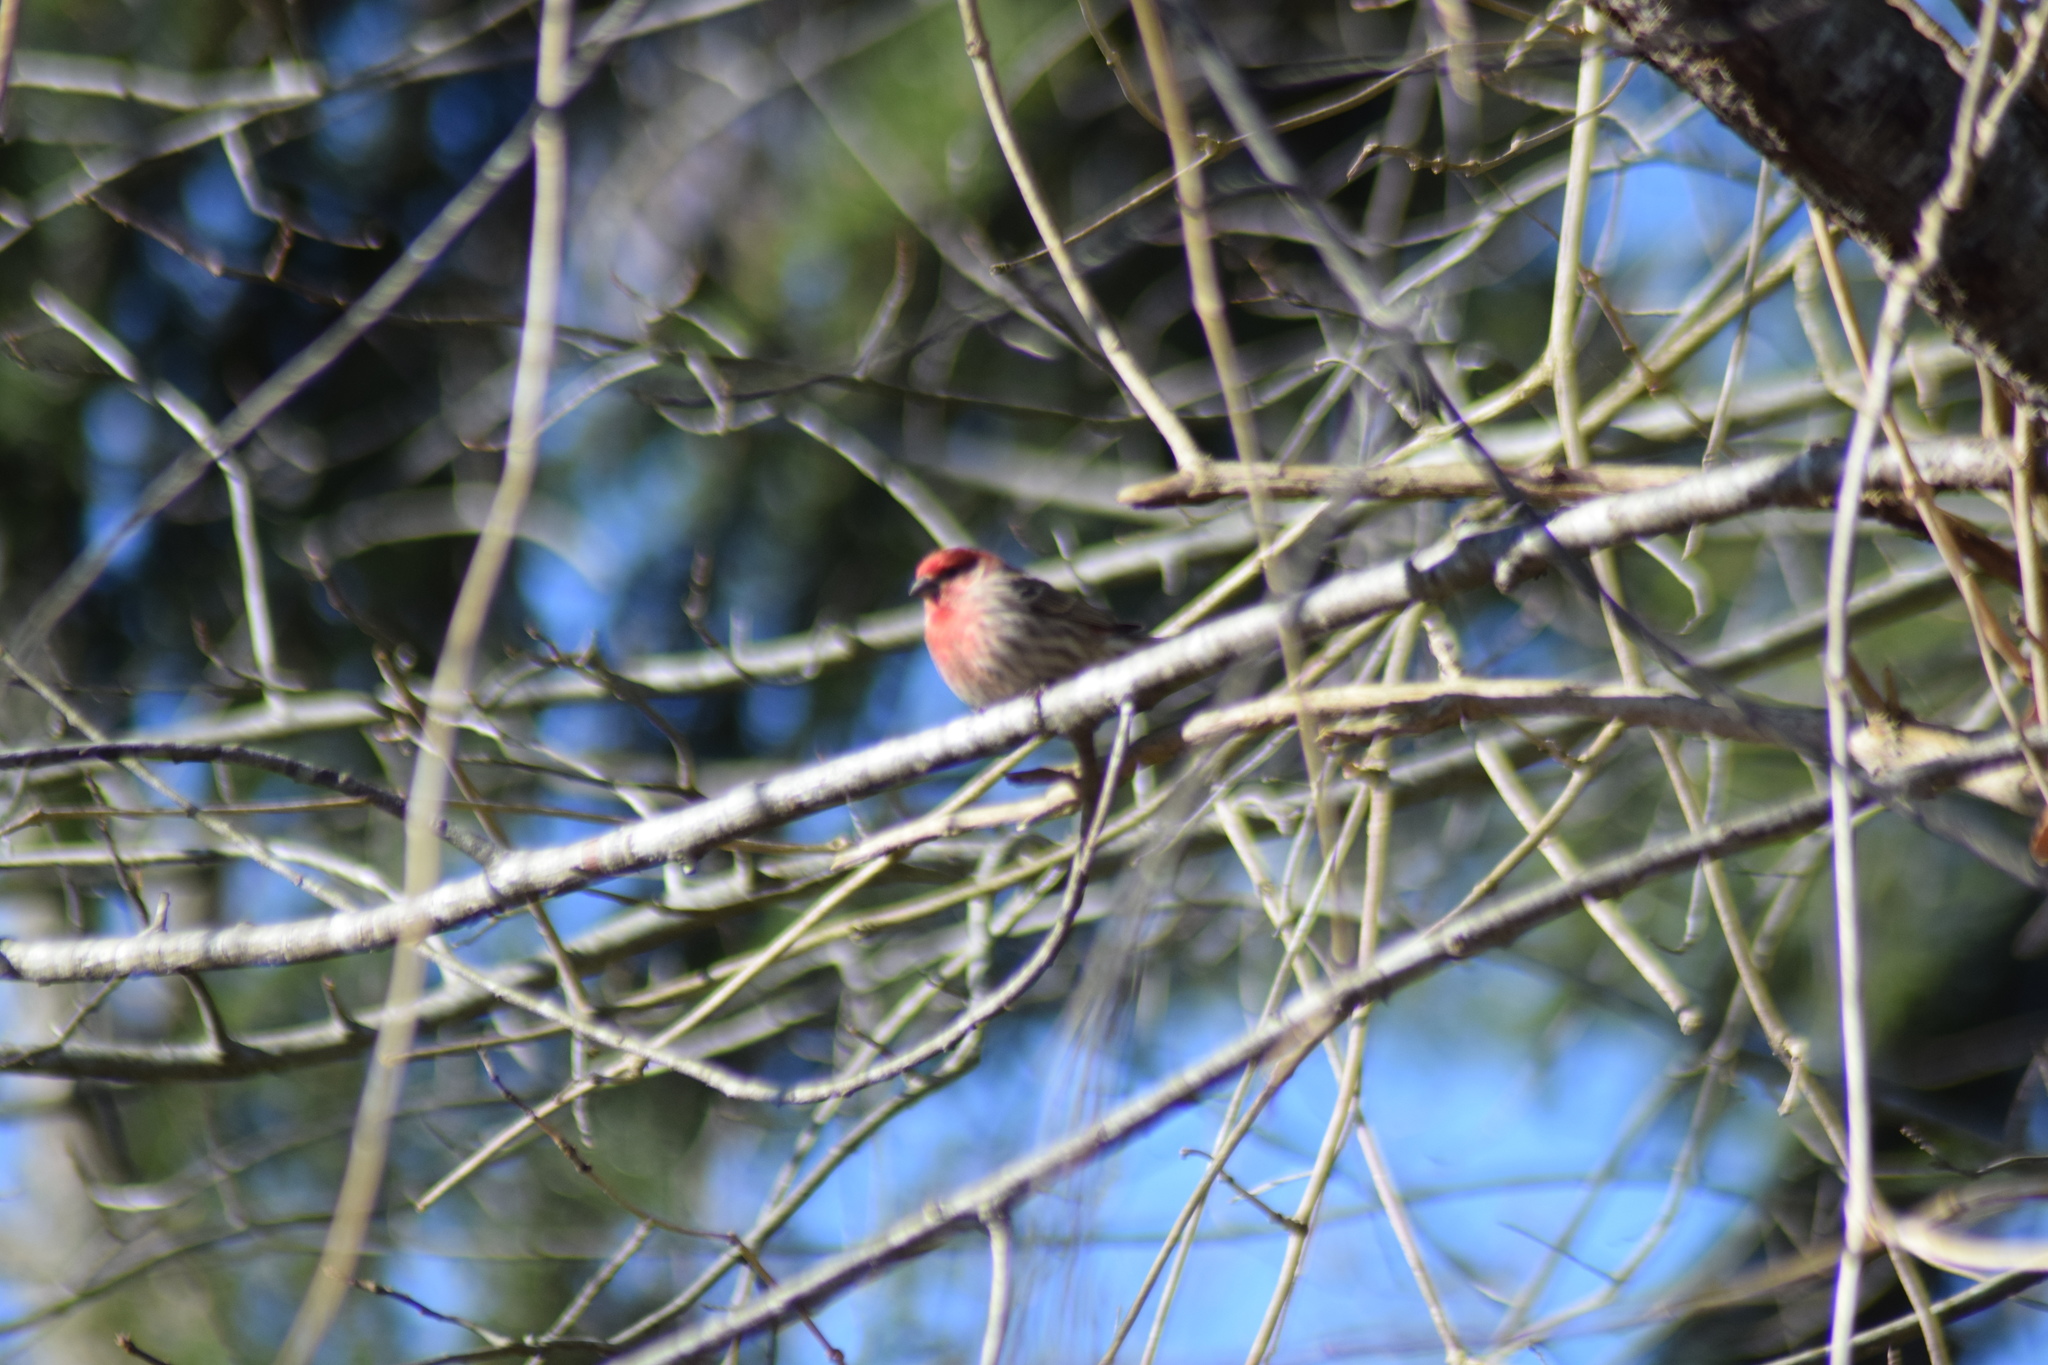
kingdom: Animalia
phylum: Chordata
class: Aves
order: Passeriformes
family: Fringillidae
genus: Haemorhous
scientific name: Haemorhous mexicanus
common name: House finch
